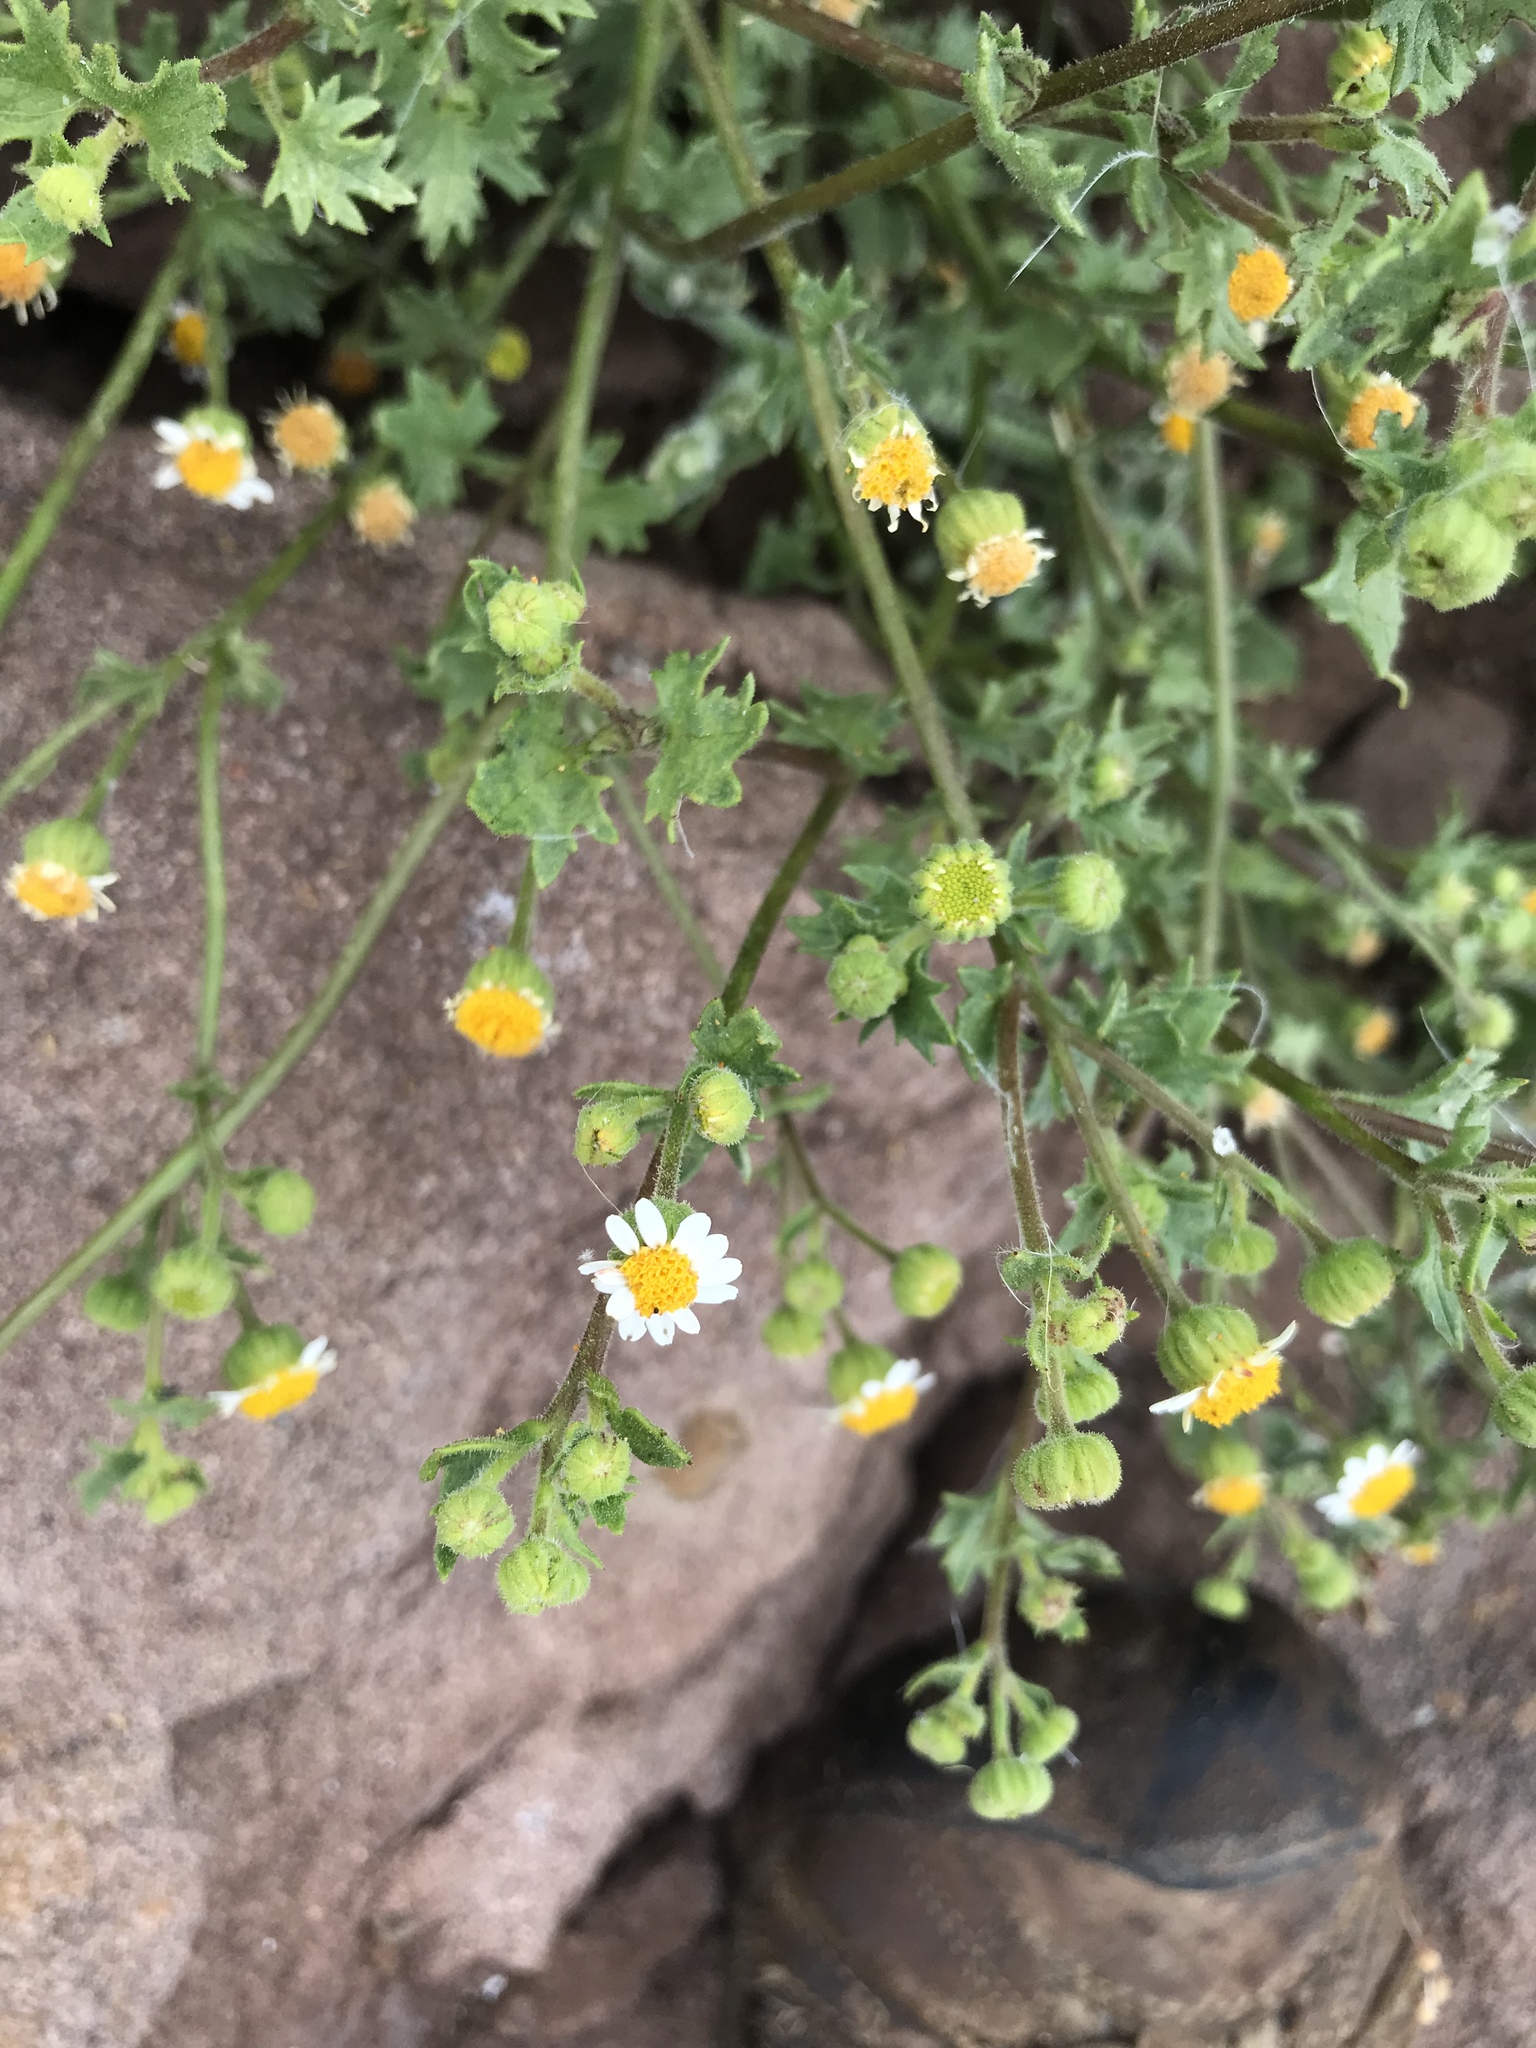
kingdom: Plantae
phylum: Tracheophyta
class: Magnoliopsida
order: Asterales
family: Asteraceae
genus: Laphamia
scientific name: Laphamia emoryi
